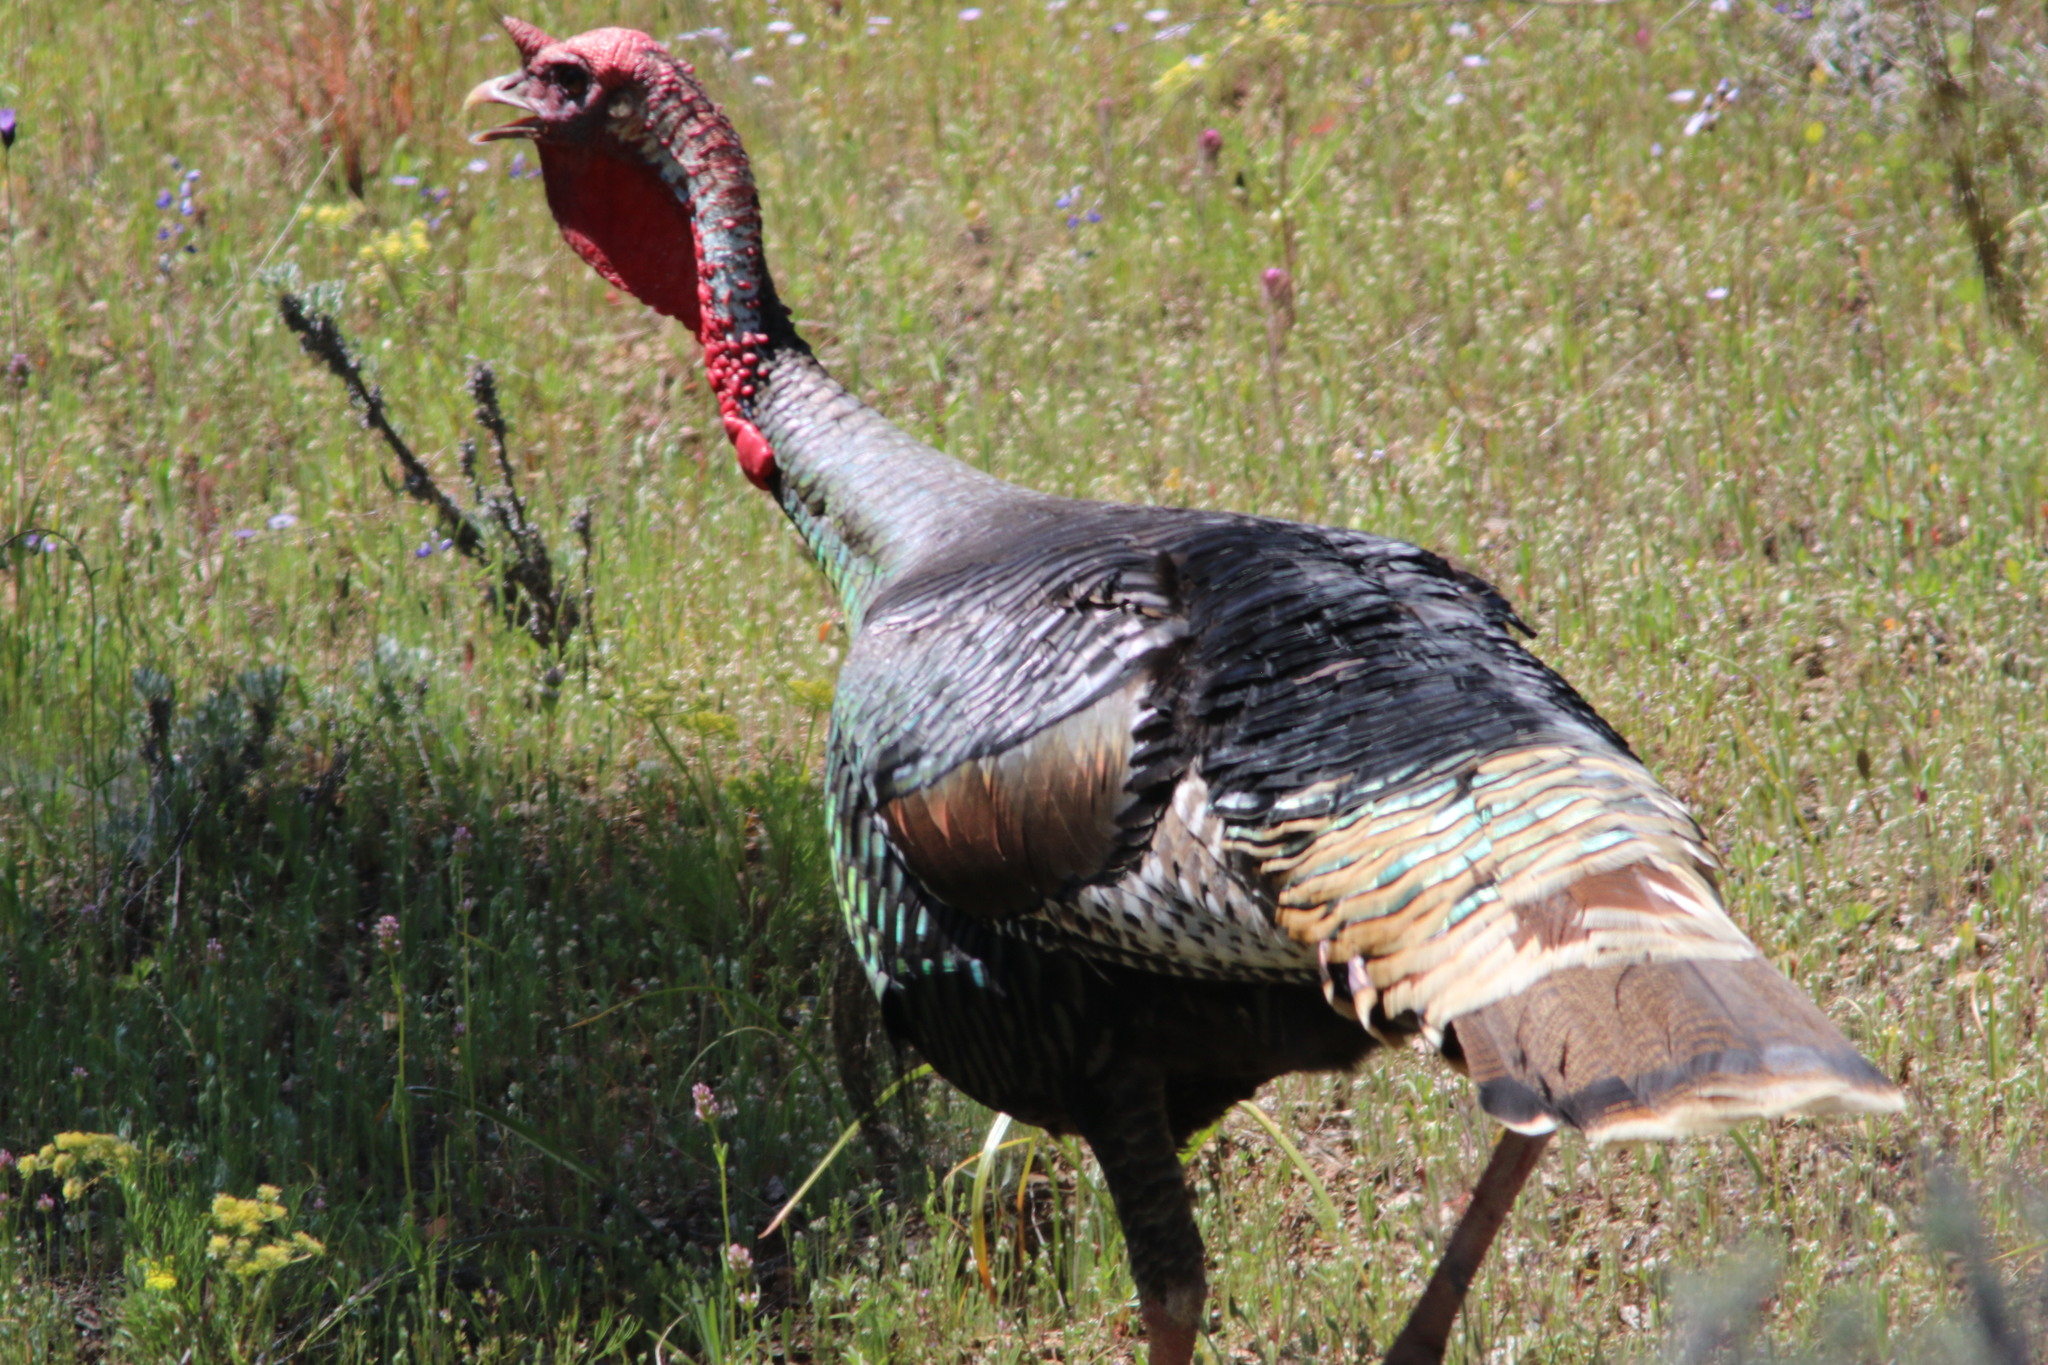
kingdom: Animalia
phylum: Chordata
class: Aves
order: Galliformes
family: Phasianidae
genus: Meleagris
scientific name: Meleagris gallopavo
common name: Wild turkey
